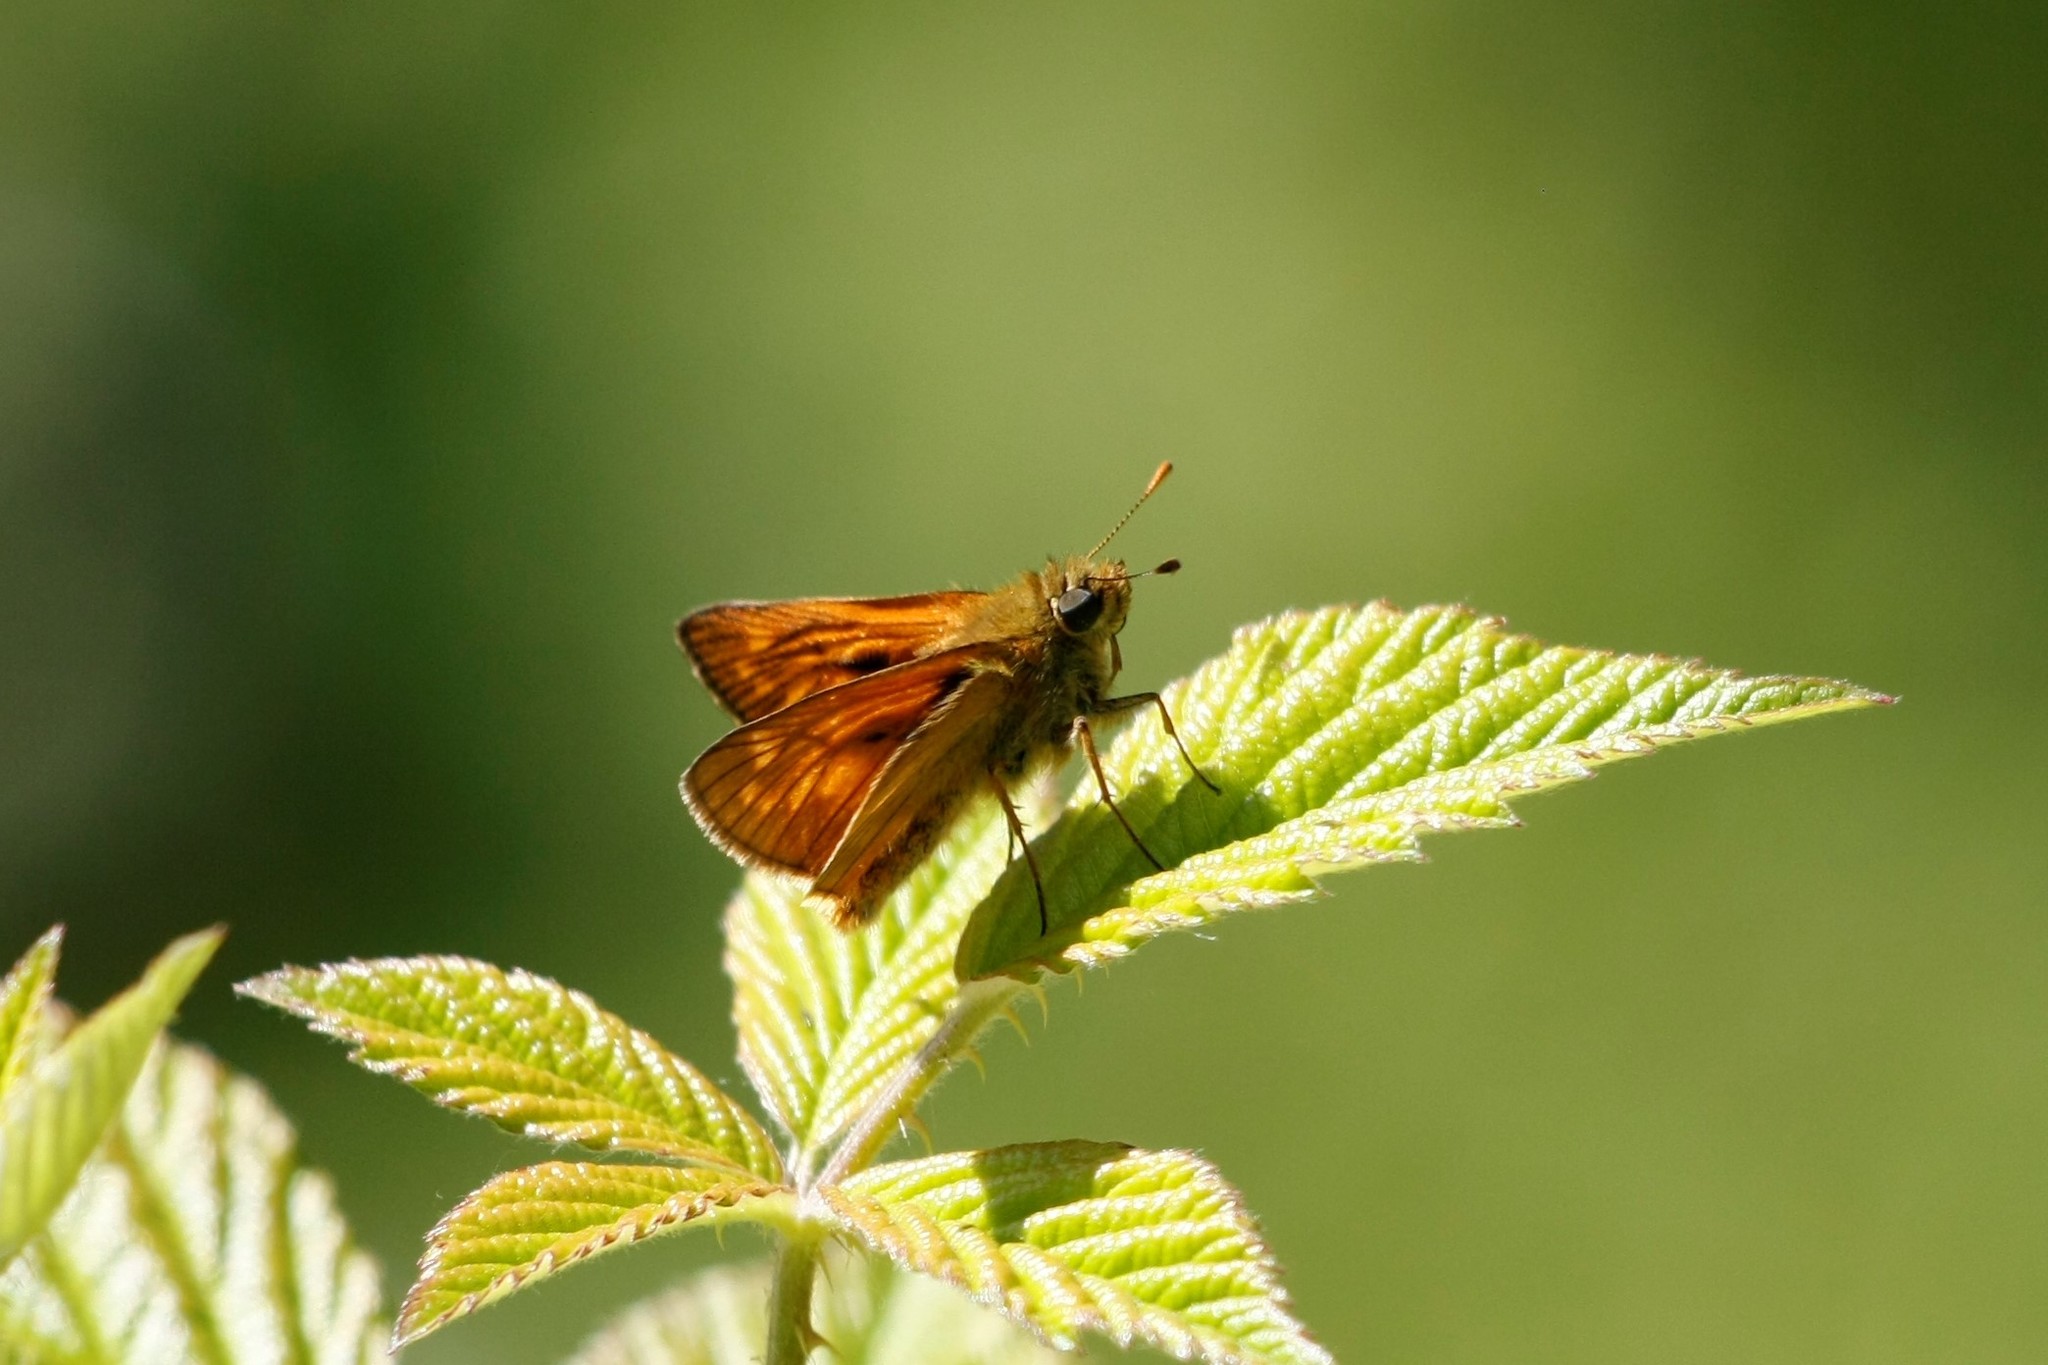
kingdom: Animalia
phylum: Arthropoda
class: Insecta
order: Lepidoptera
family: Hesperiidae
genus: Ochlodes
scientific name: Ochlodes venata
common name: Large skipper
